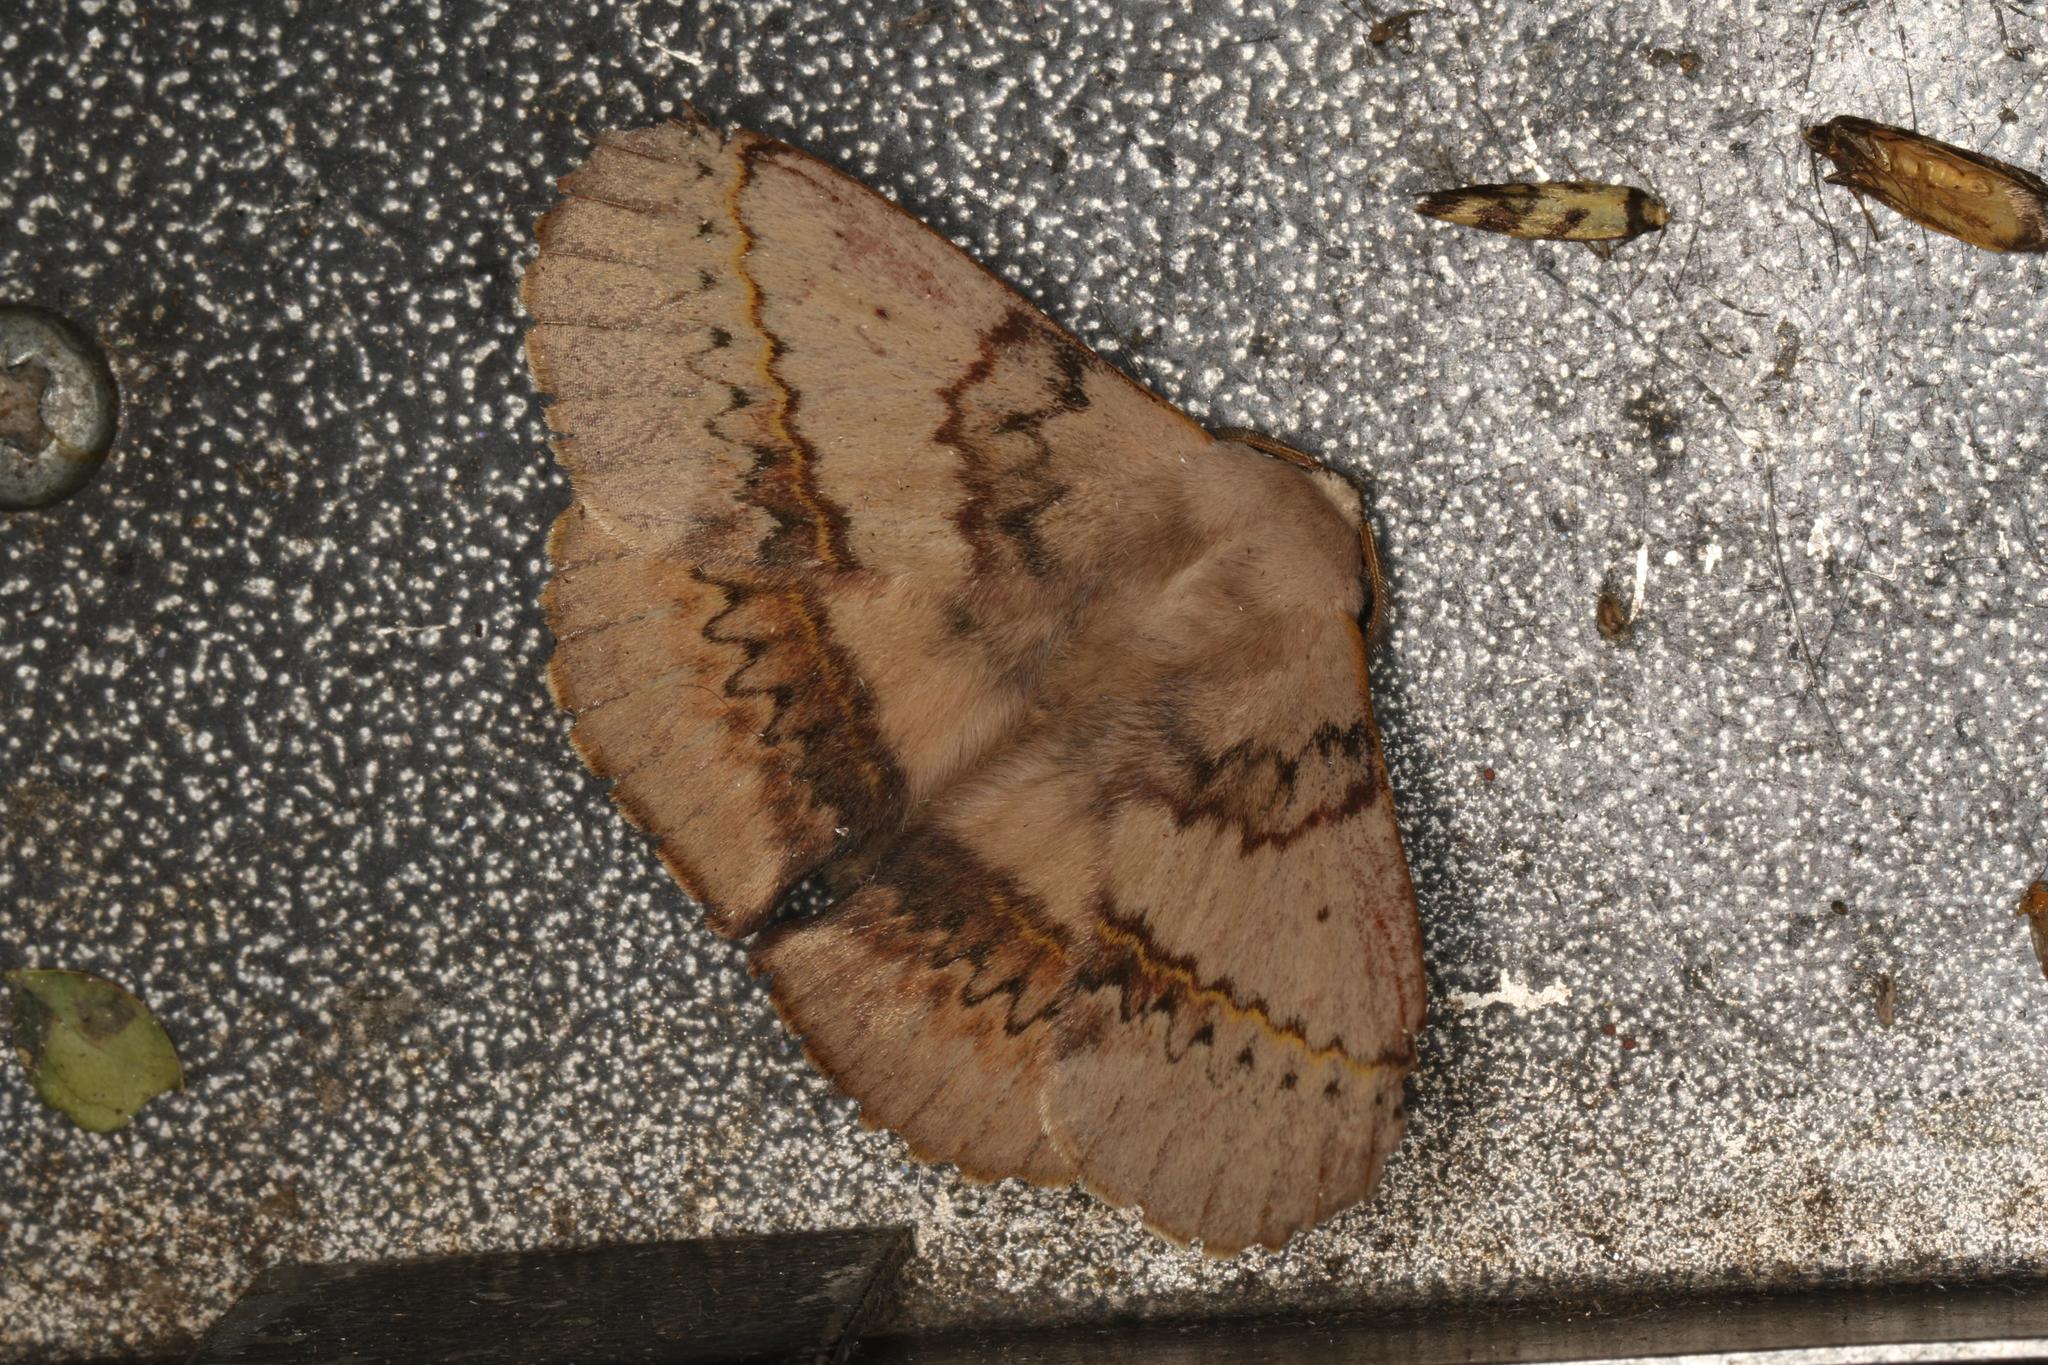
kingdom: Animalia
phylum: Arthropoda
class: Insecta
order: Lepidoptera
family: Anthelidae
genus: Anthela
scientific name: Anthela varia
